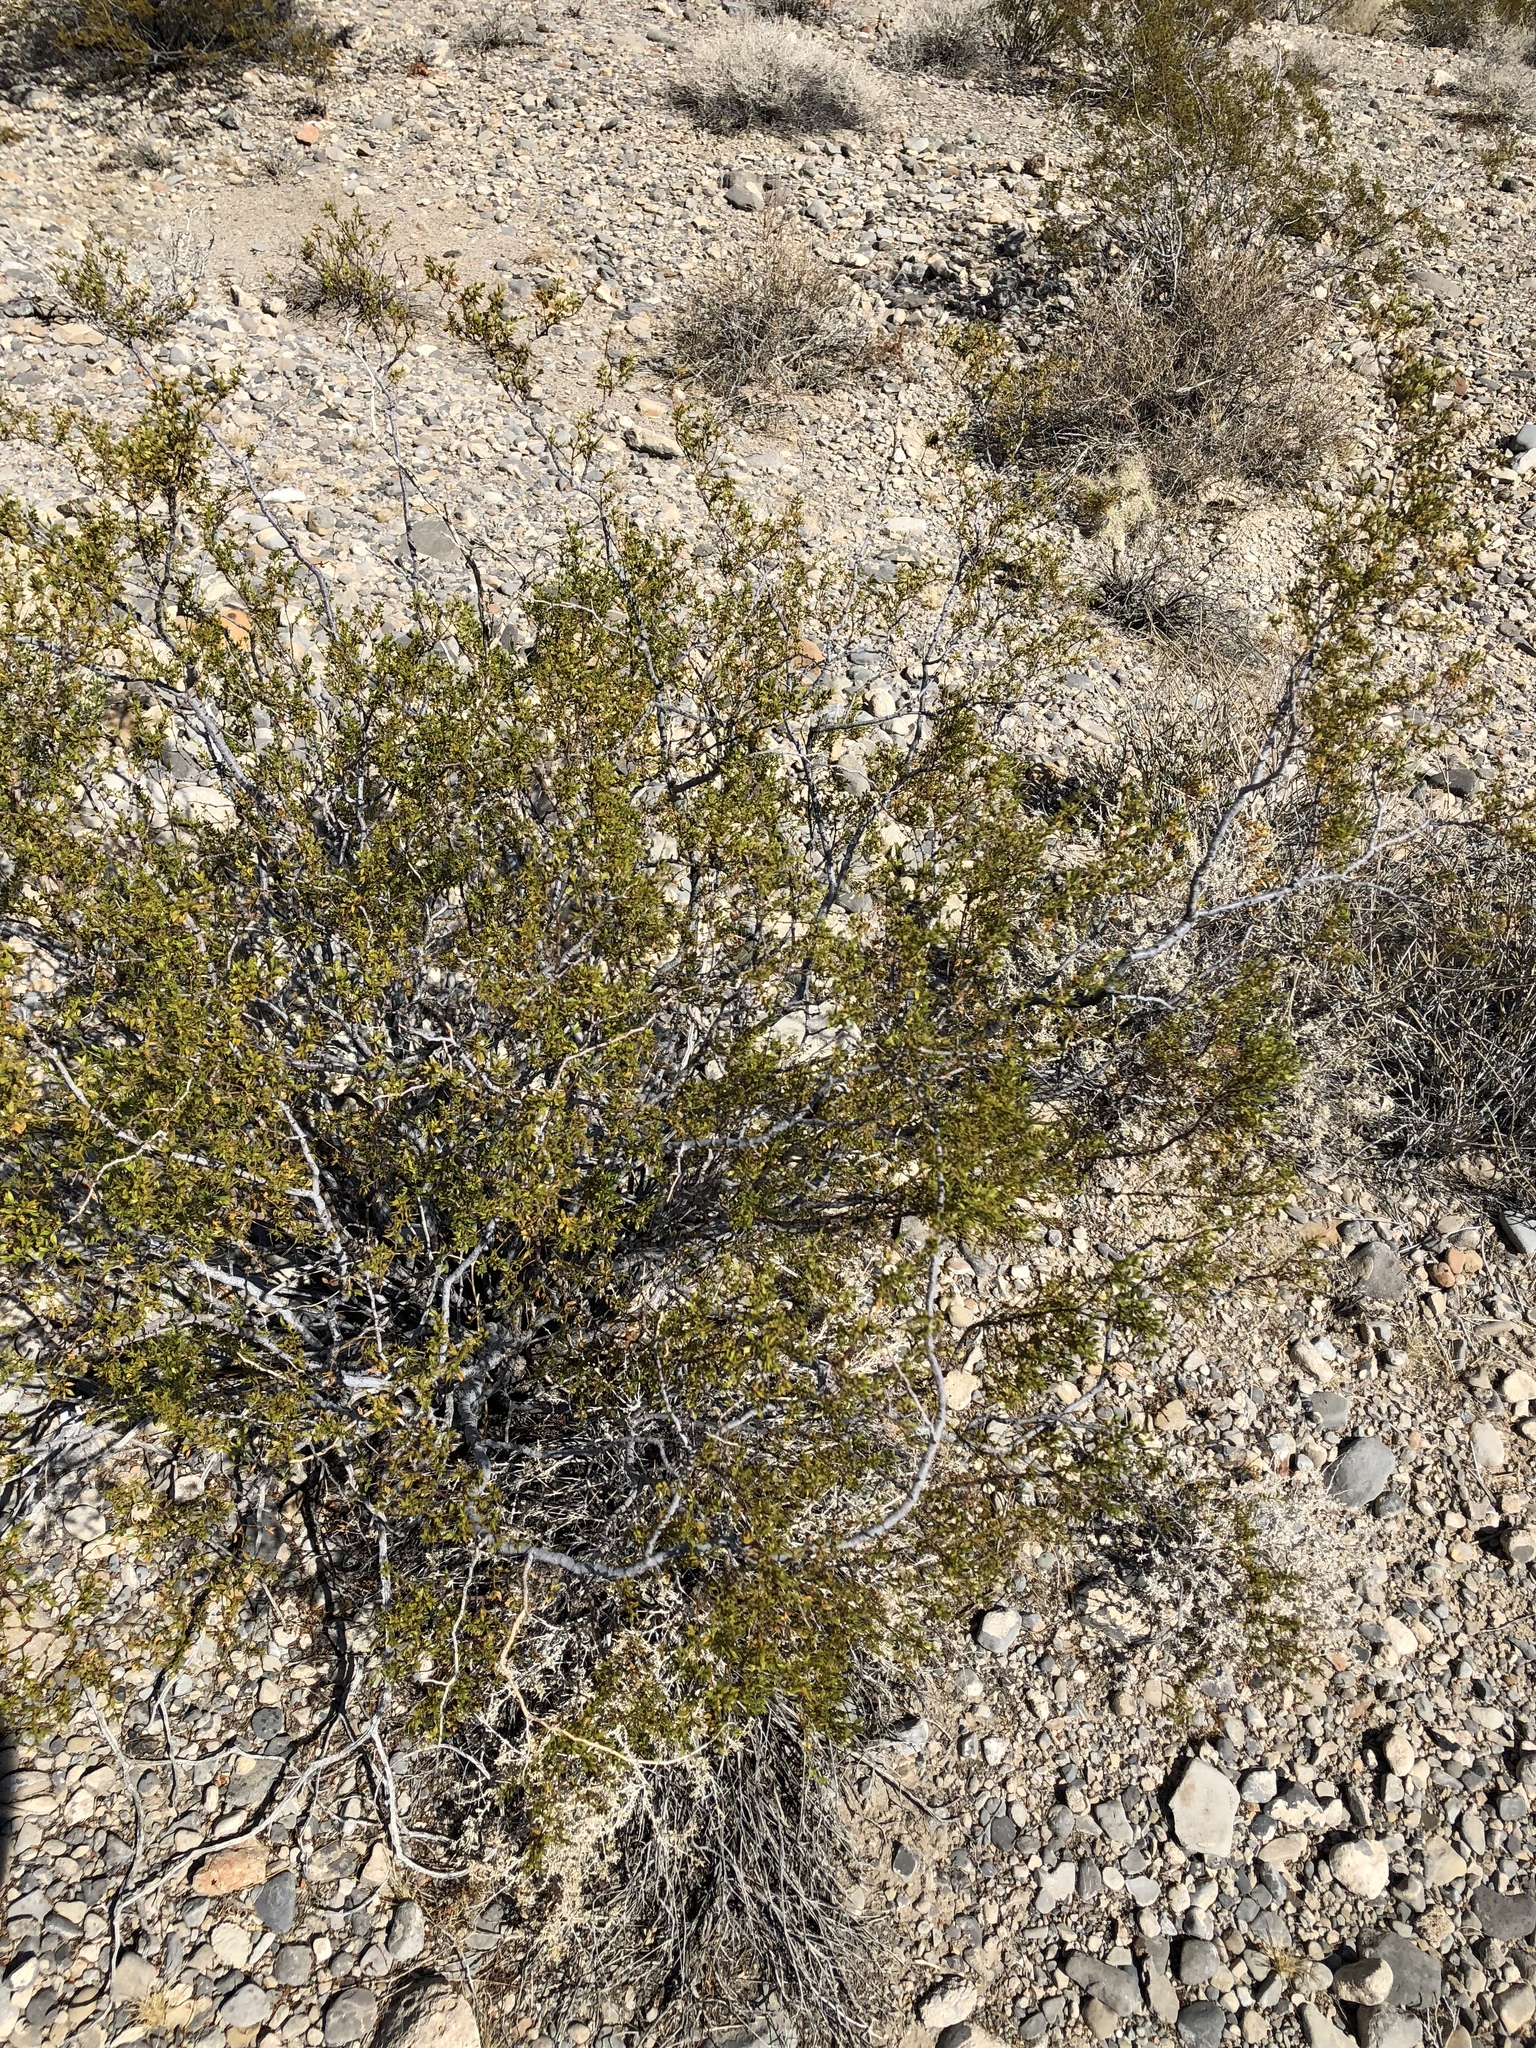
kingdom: Plantae
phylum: Tracheophyta
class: Magnoliopsida
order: Zygophyllales
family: Zygophyllaceae
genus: Larrea
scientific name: Larrea tridentata
